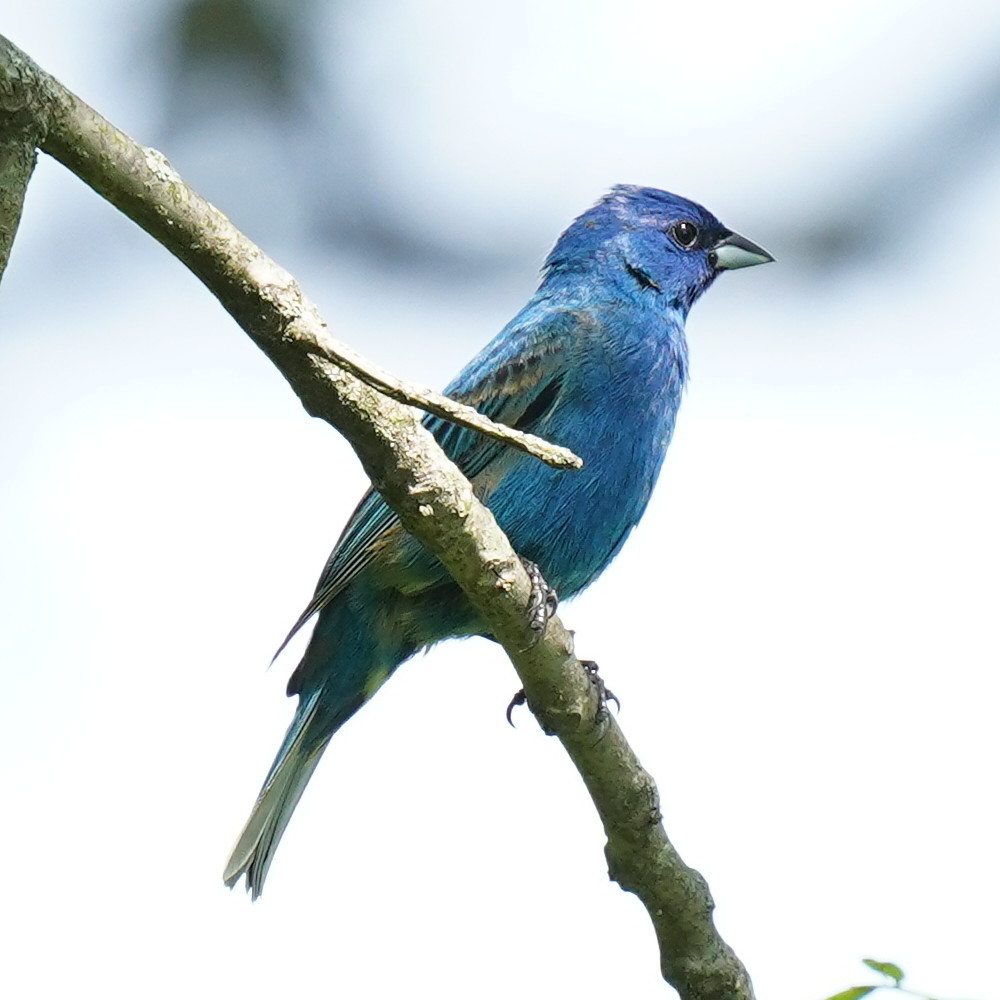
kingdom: Animalia
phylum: Chordata
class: Aves
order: Passeriformes
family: Cardinalidae
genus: Passerina
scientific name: Passerina cyanea
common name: Indigo bunting
